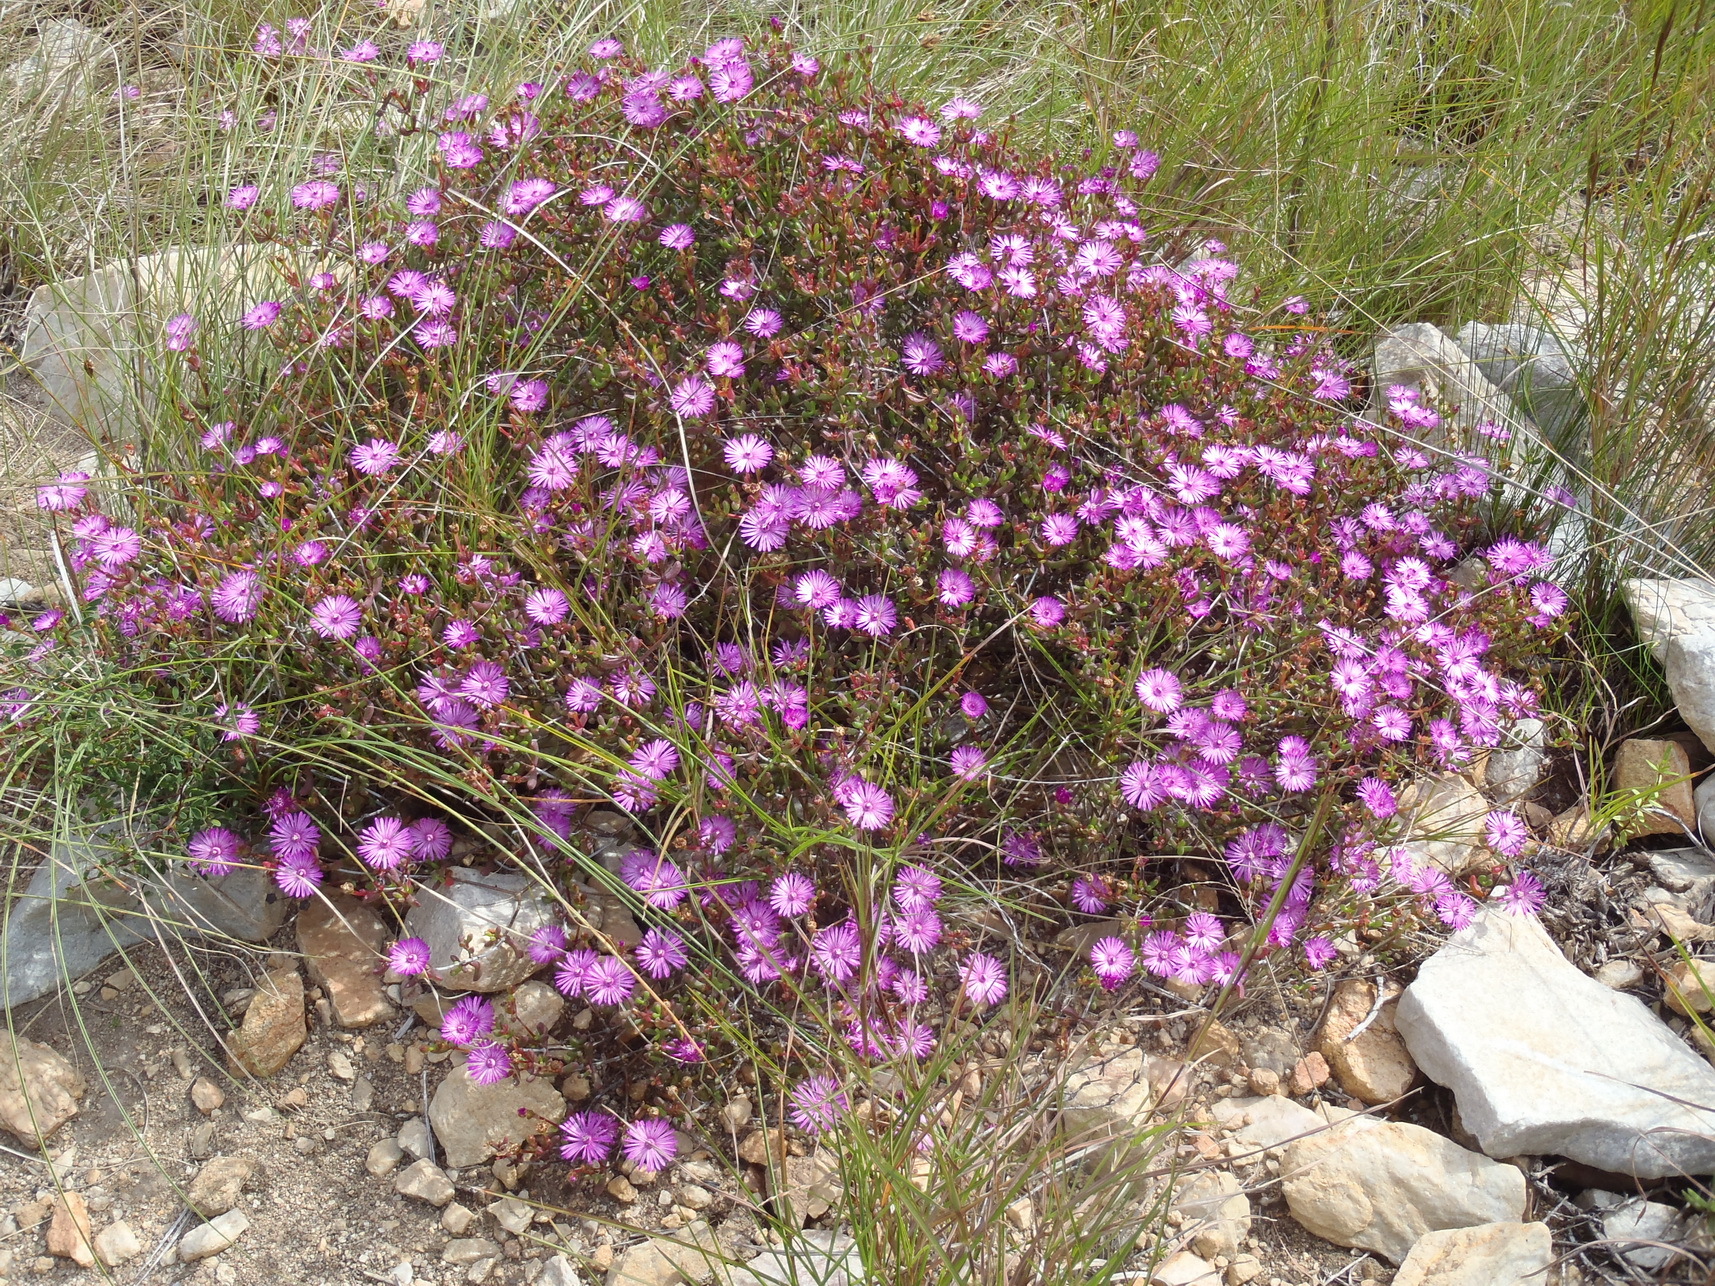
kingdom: Plantae
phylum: Tracheophyta
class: Magnoliopsida
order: Caryophyllales
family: Aizoaceae
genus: Ruschia
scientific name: Ruschia fourcadei
